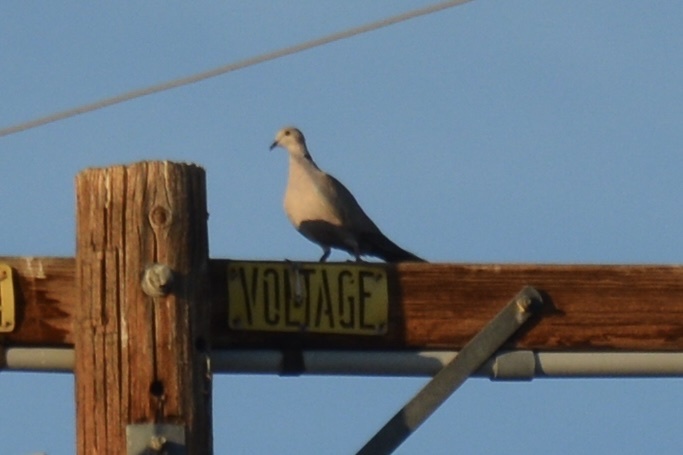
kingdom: Animalia
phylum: Chordata
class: Aves
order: Columbiformes
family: Columbidae
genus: Streptopelia
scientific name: Streptopelia decaocto
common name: Eurasian collared dove
